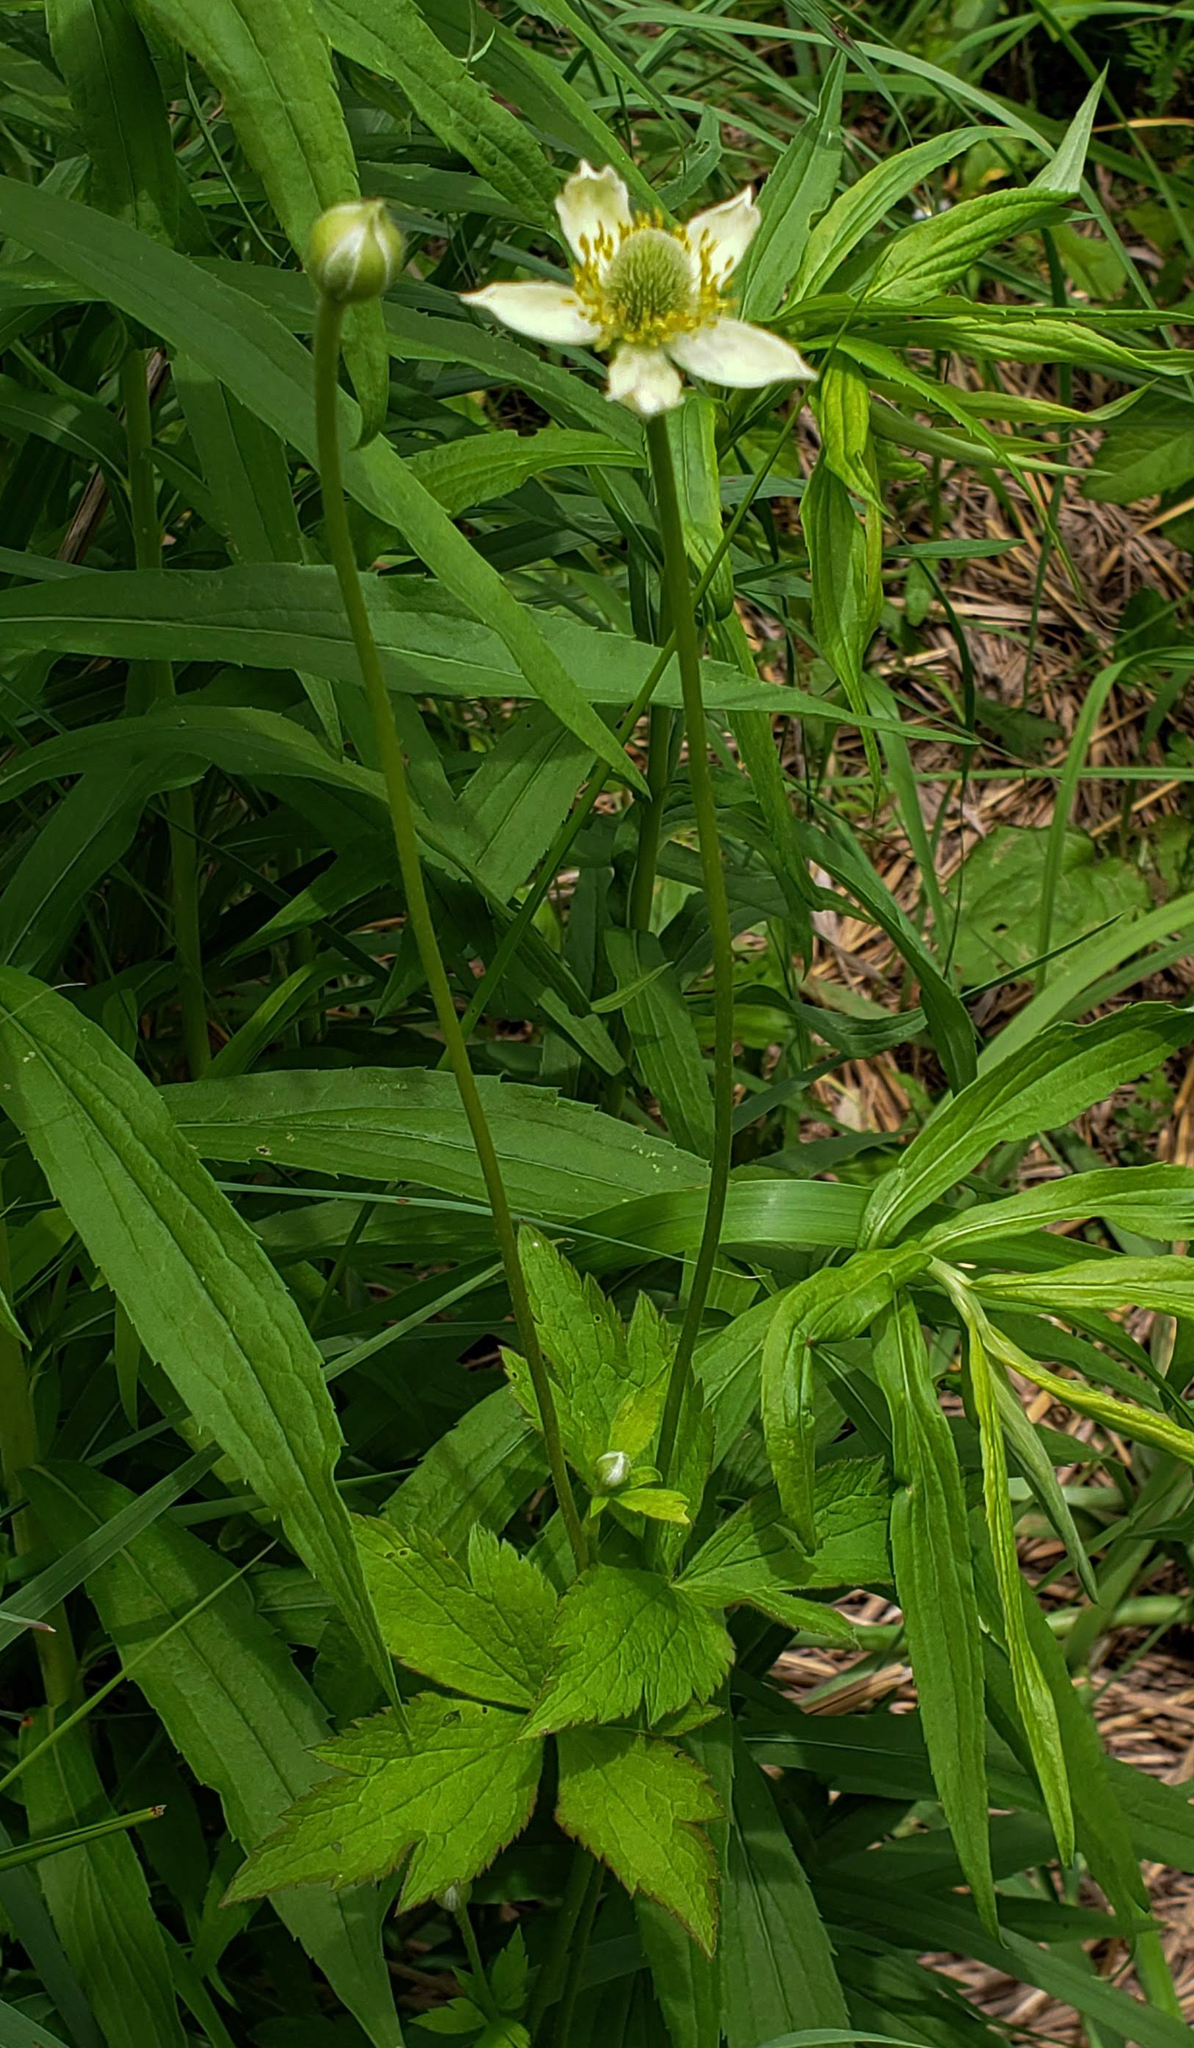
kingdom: Plantae
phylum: Tracheophyta
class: Magnoliopsida
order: Ranunculales
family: Ranunculaceae
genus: Anemone
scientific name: Anemone virginiana
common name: Tall anemone
